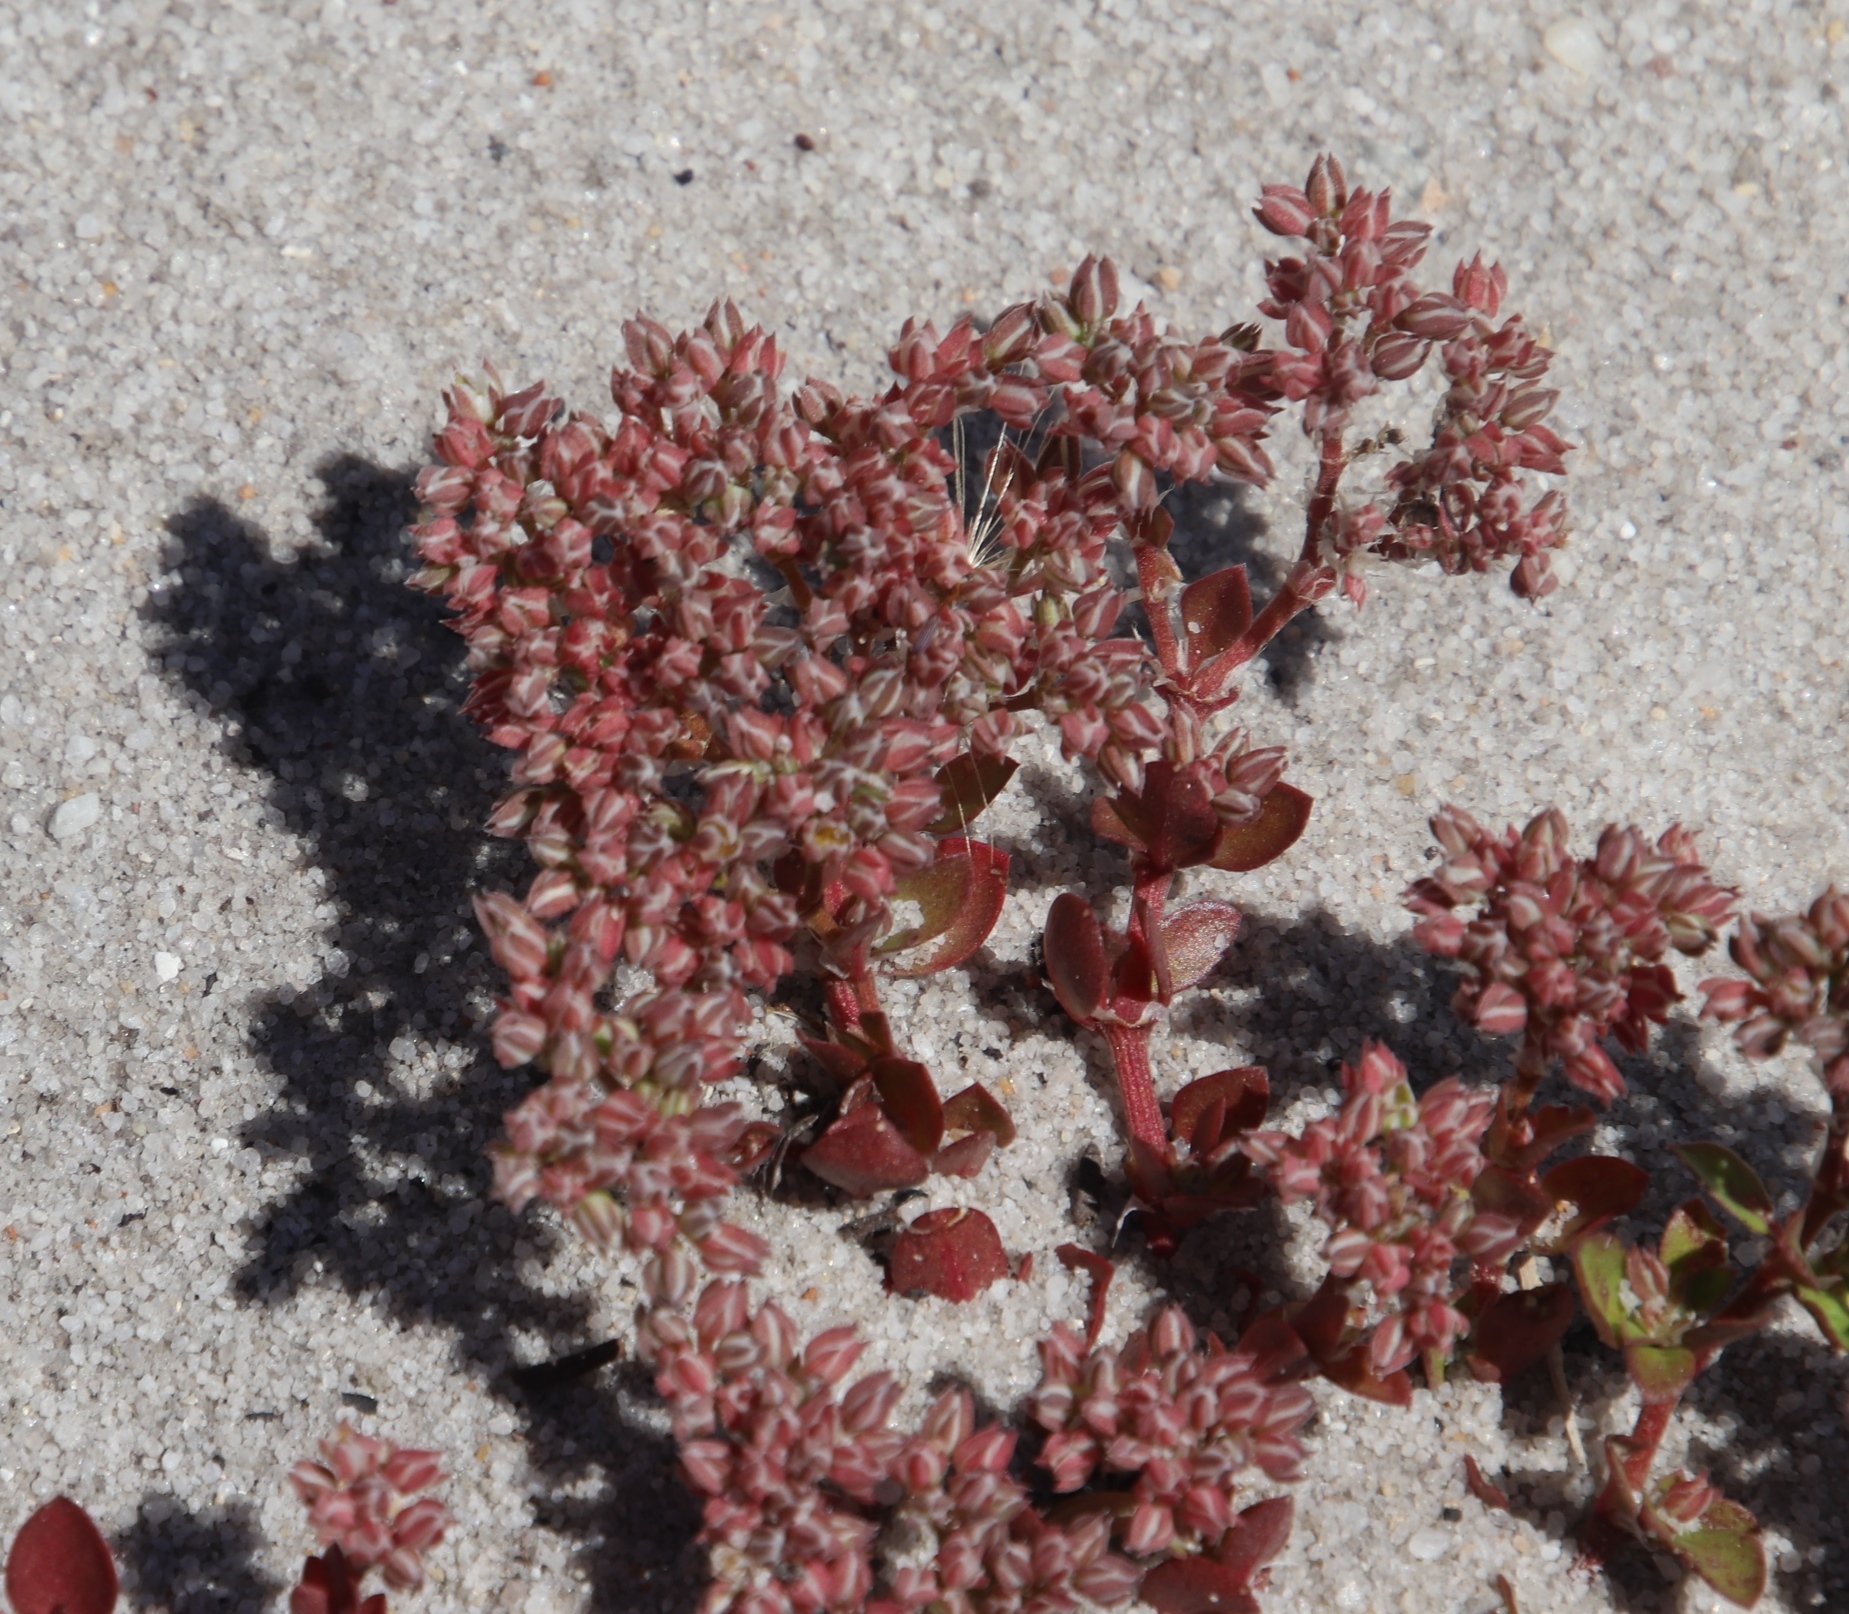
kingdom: Plantae
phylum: Tracheophyta
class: Magnoliopsida
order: Caryophyllales
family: Caryophyllaceae
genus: Polycarpon
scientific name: Polycarpon tetraphyllum
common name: Four-leaved all-seed
